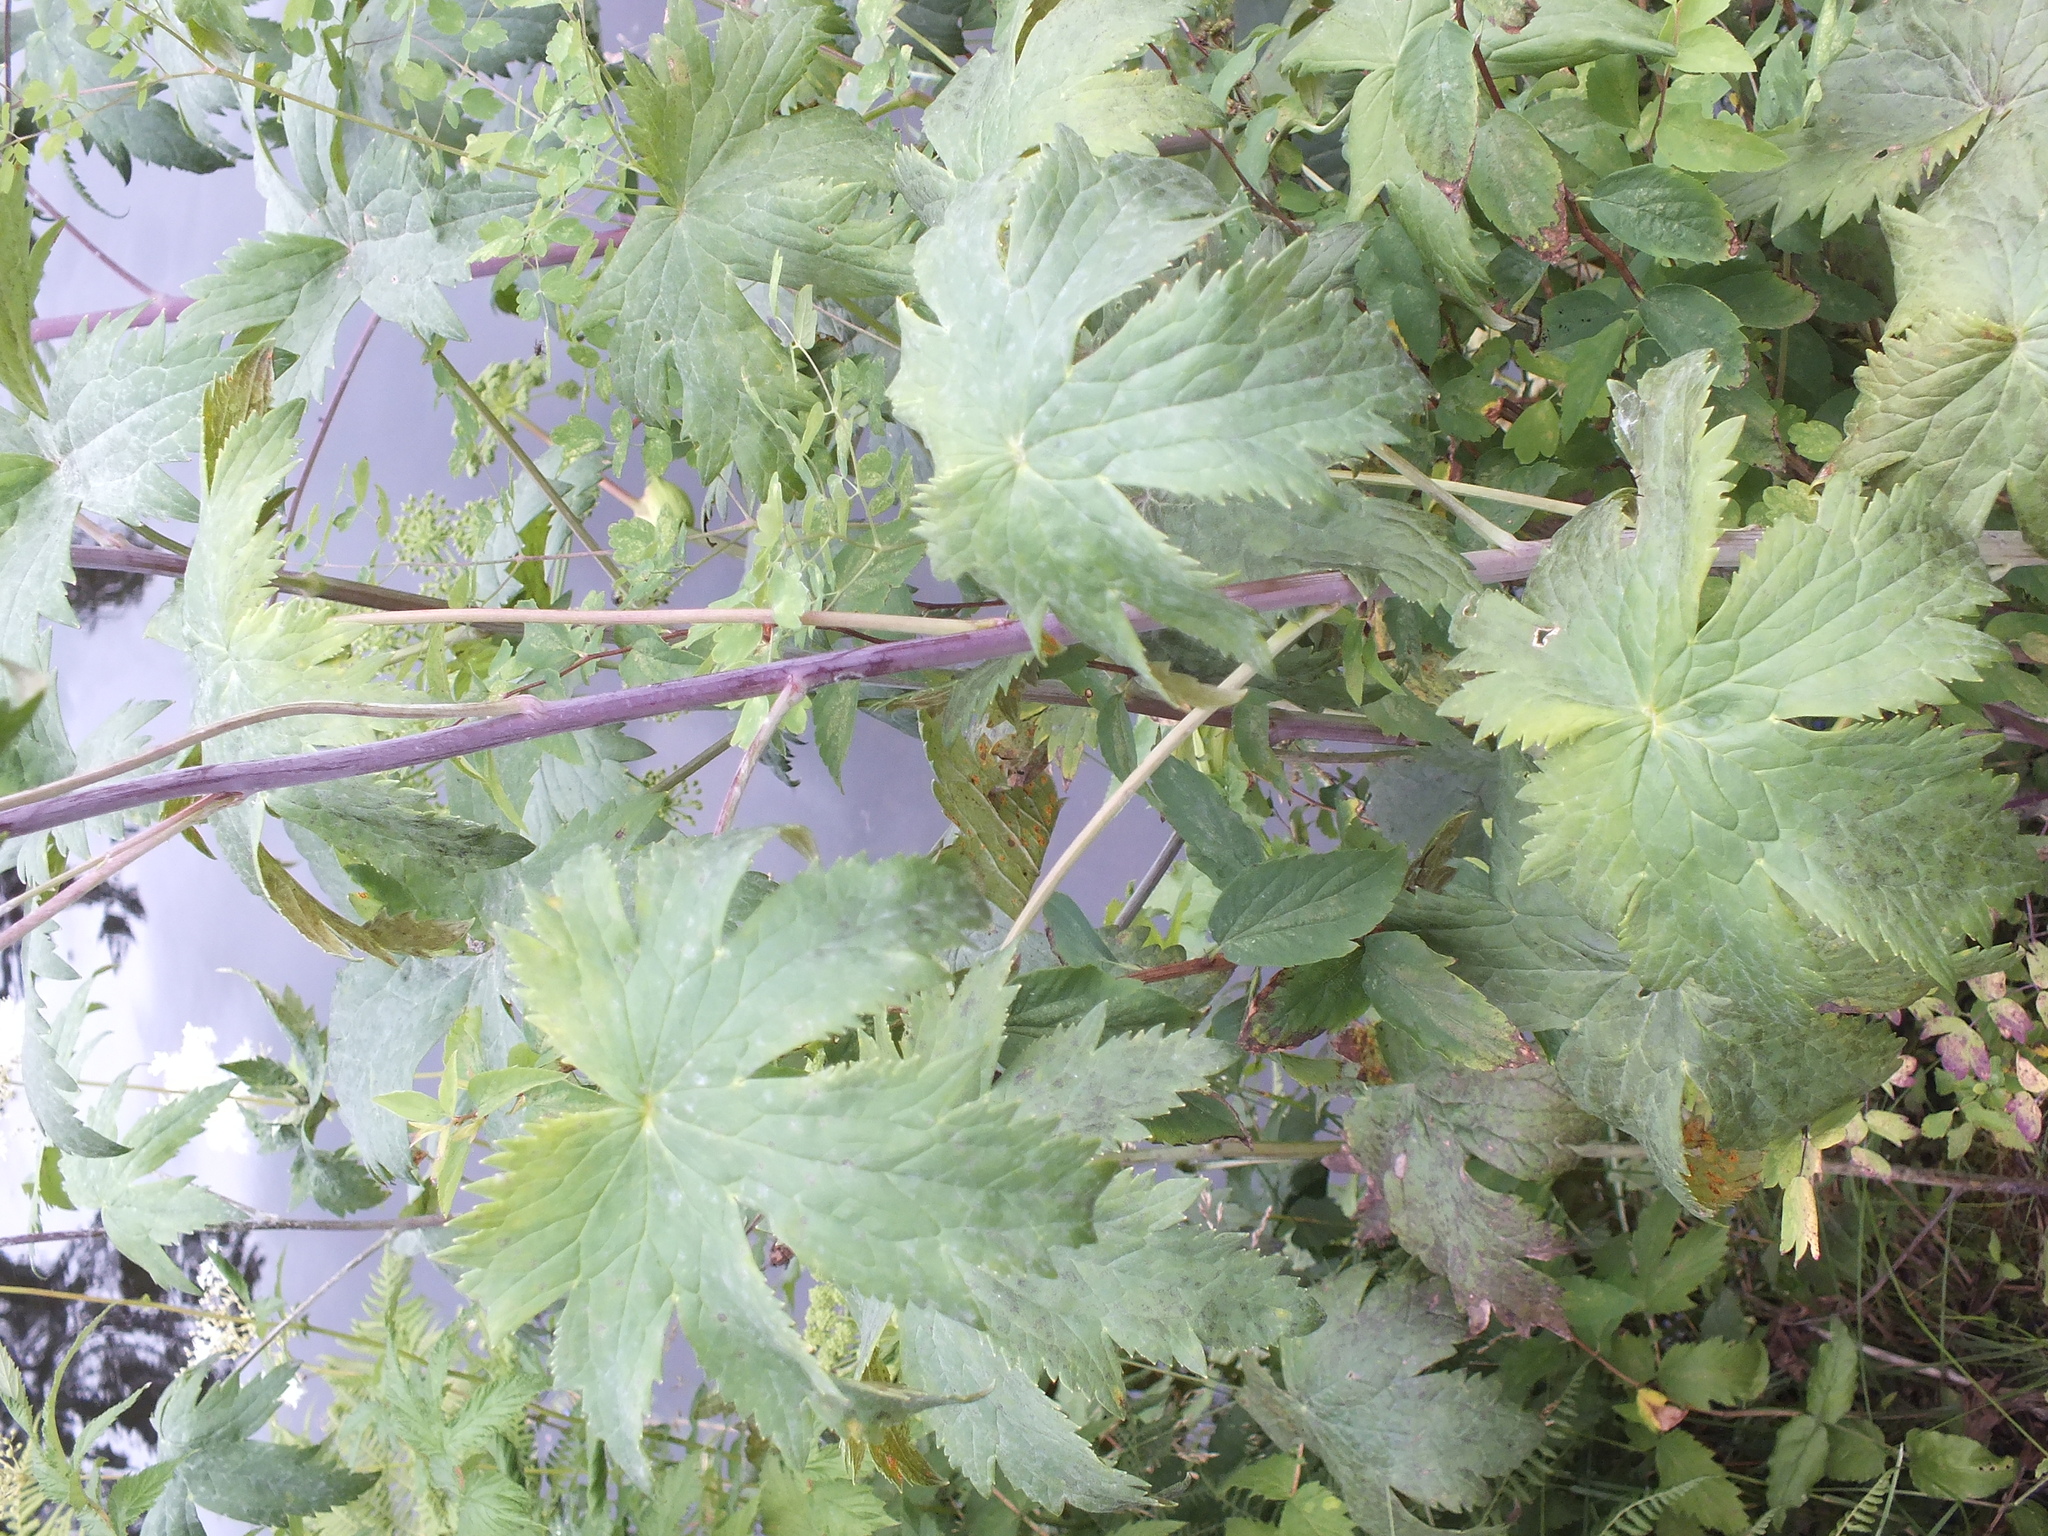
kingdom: Plantae
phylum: Tracheophyta
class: Magnoliopsida
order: Ranunculales
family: Ranunculaceae
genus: Delphinium
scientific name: Delphinium elatum
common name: Candle larkspur
